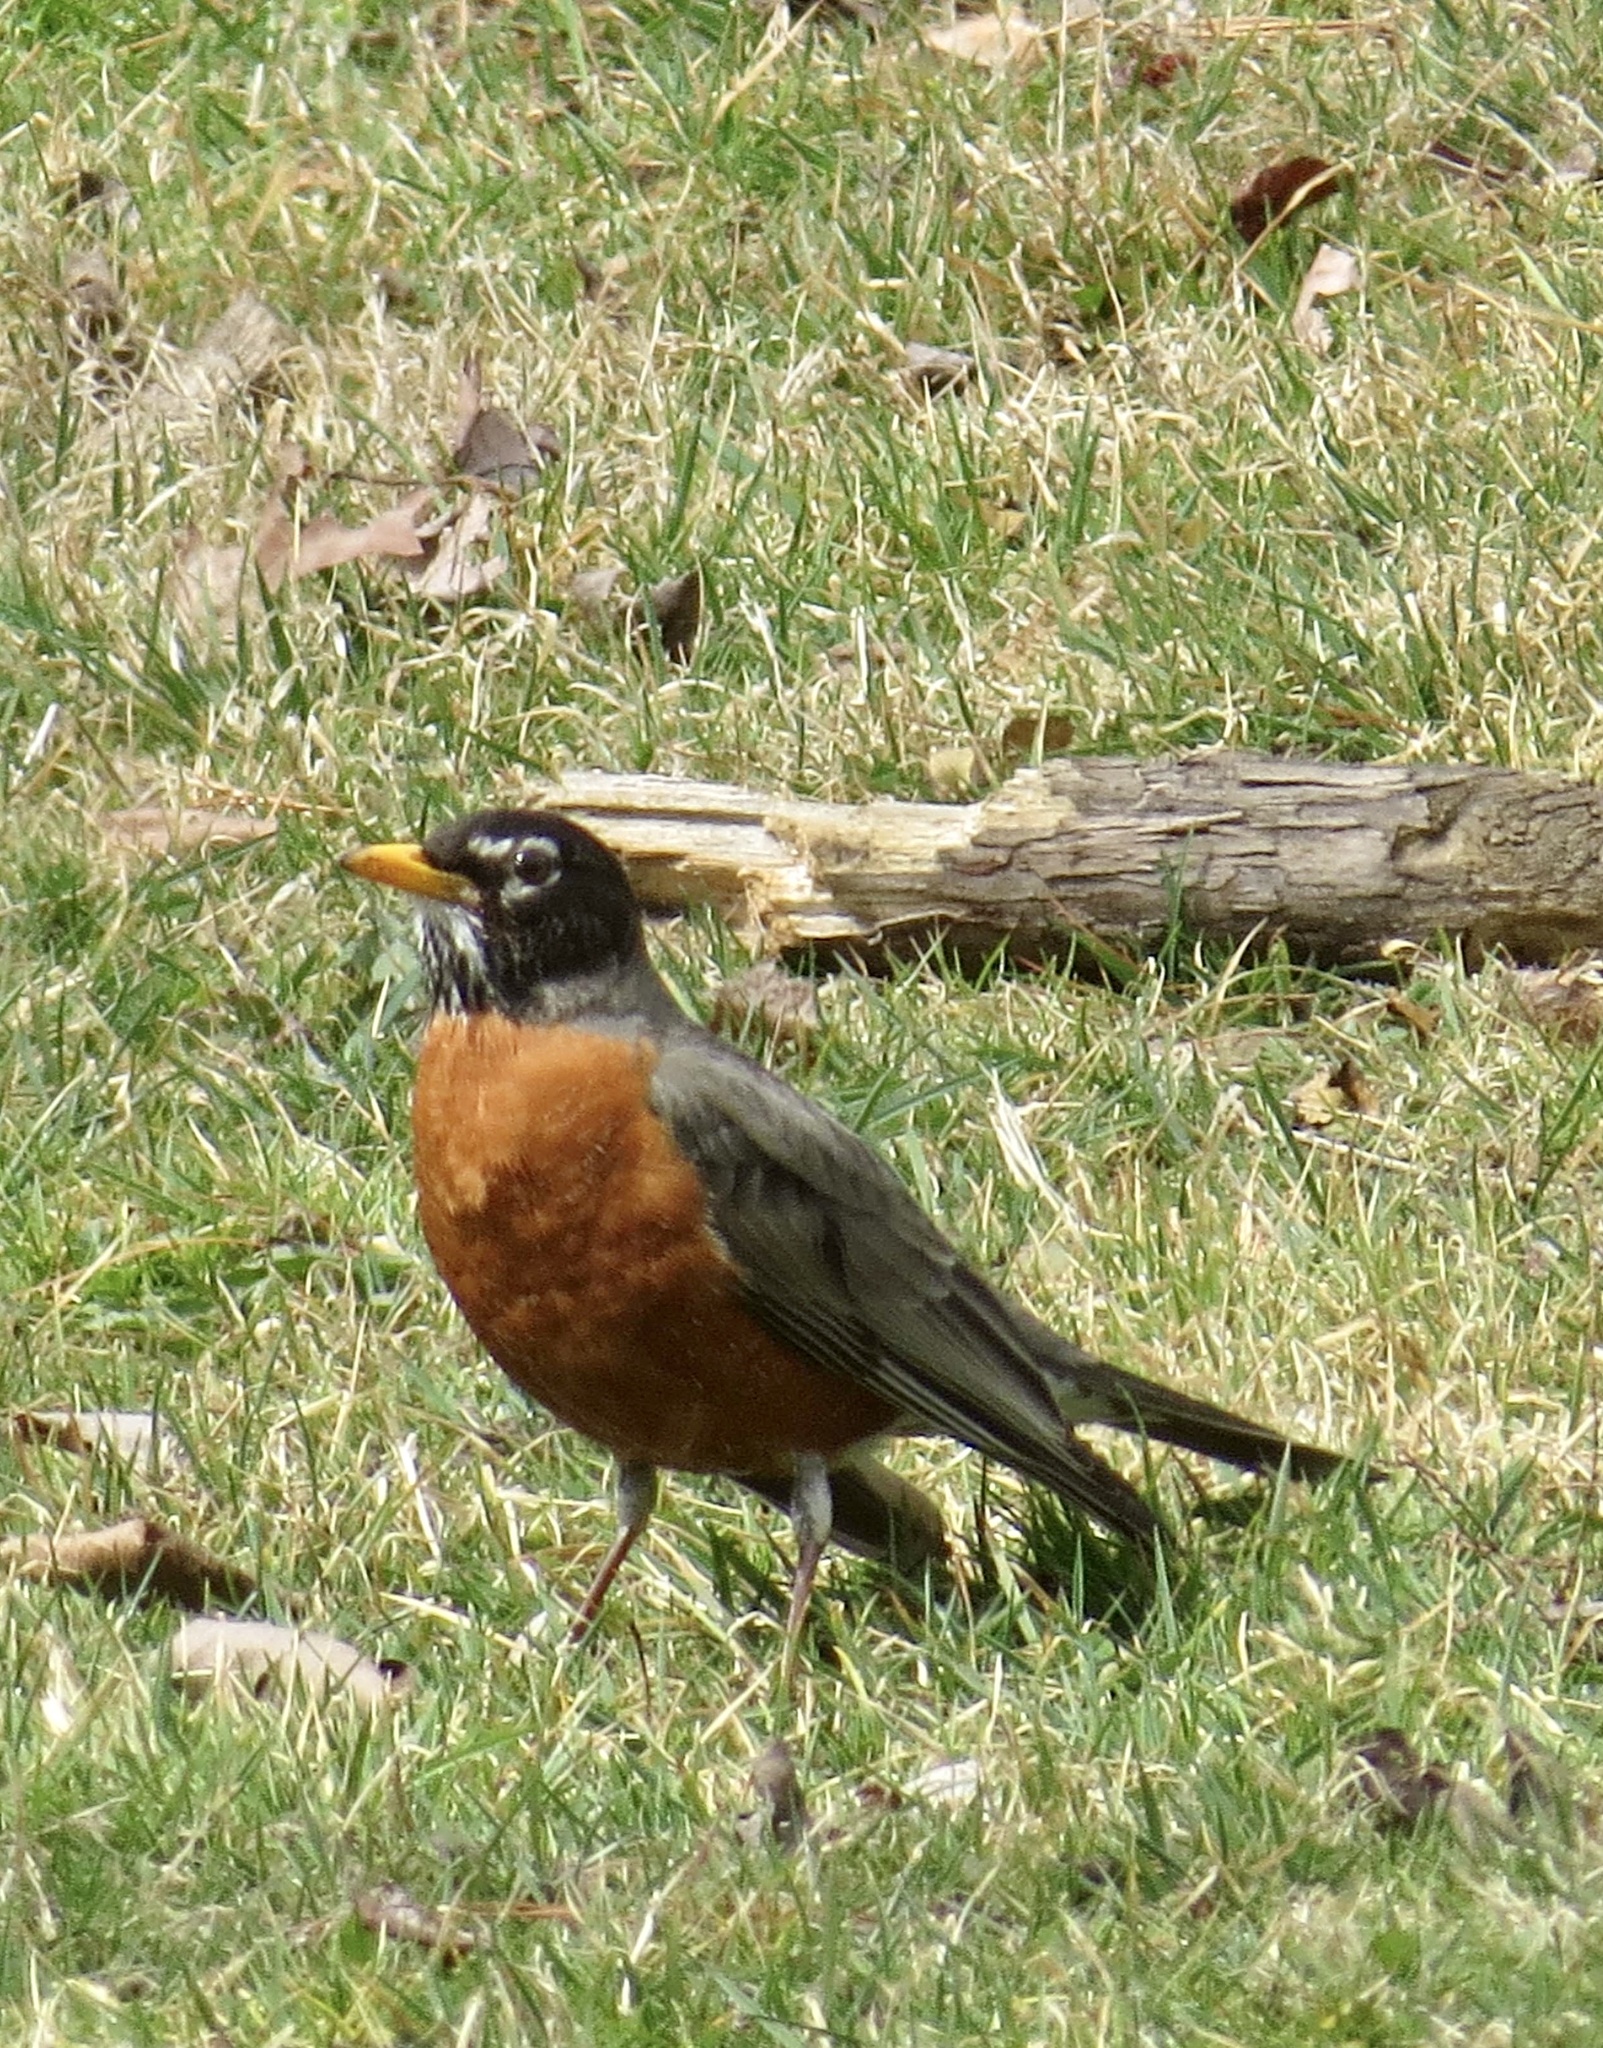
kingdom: Animalia
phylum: Chordata
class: Aves
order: Passeriformes
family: Turdidae
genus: Turdus
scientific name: Turdus migratorius
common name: American robin
